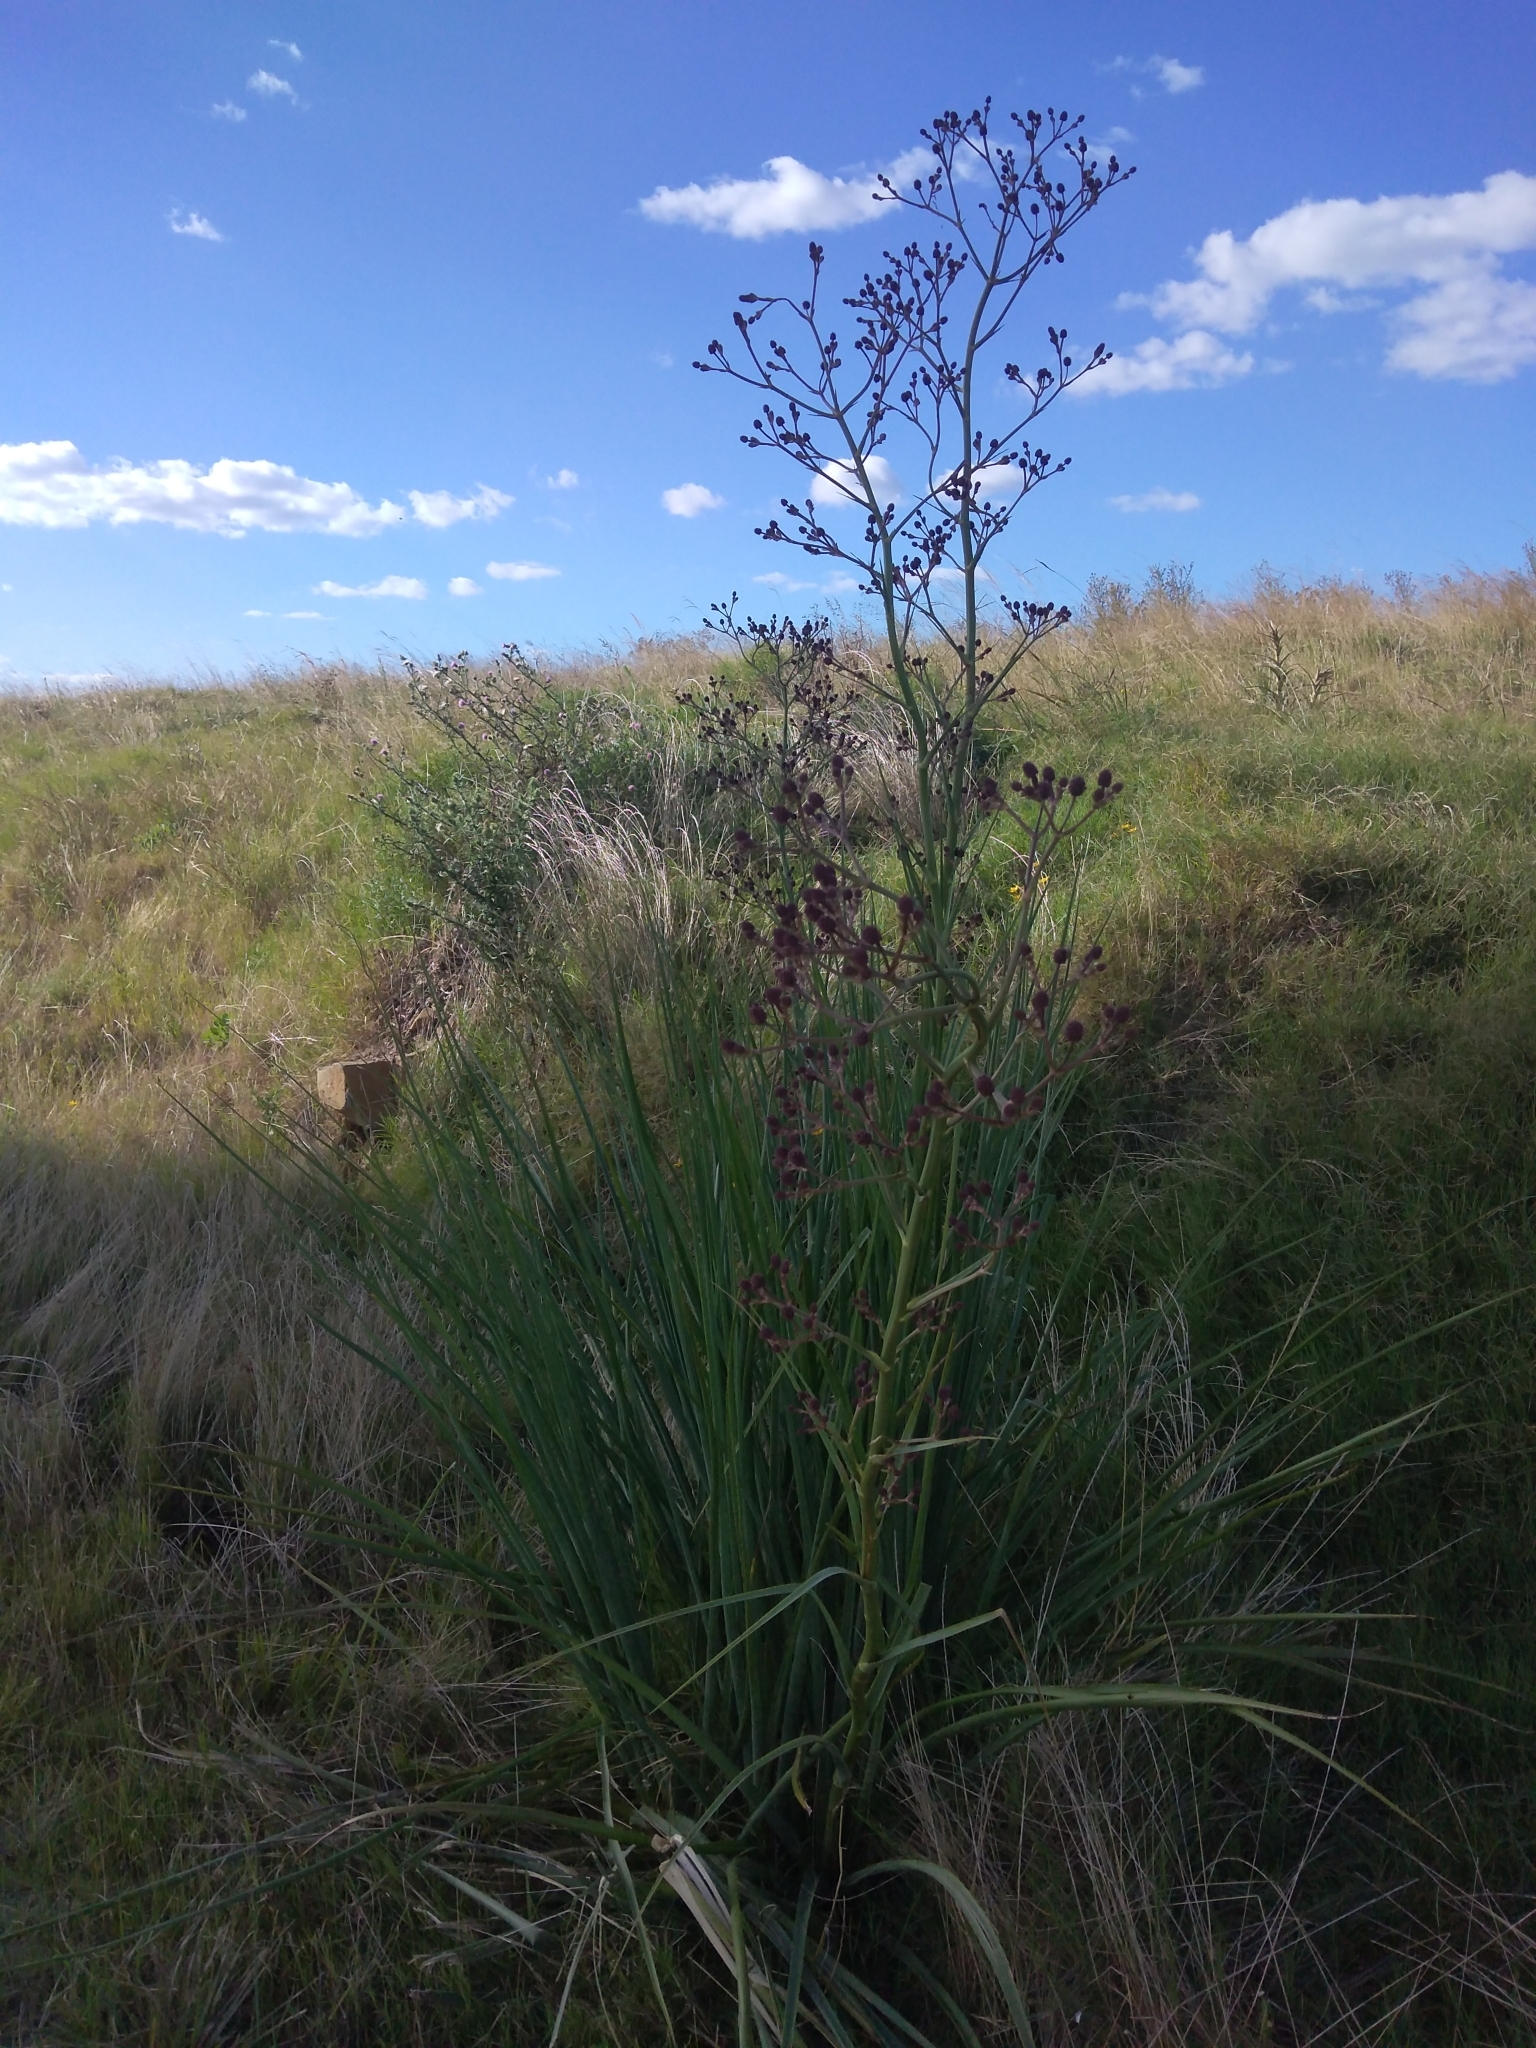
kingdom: Plantae
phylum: Tracheophyta
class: Magnoliopsida
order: Apiales
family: Apiaceae
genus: Eryngium
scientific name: Eryngium pandanifolium
